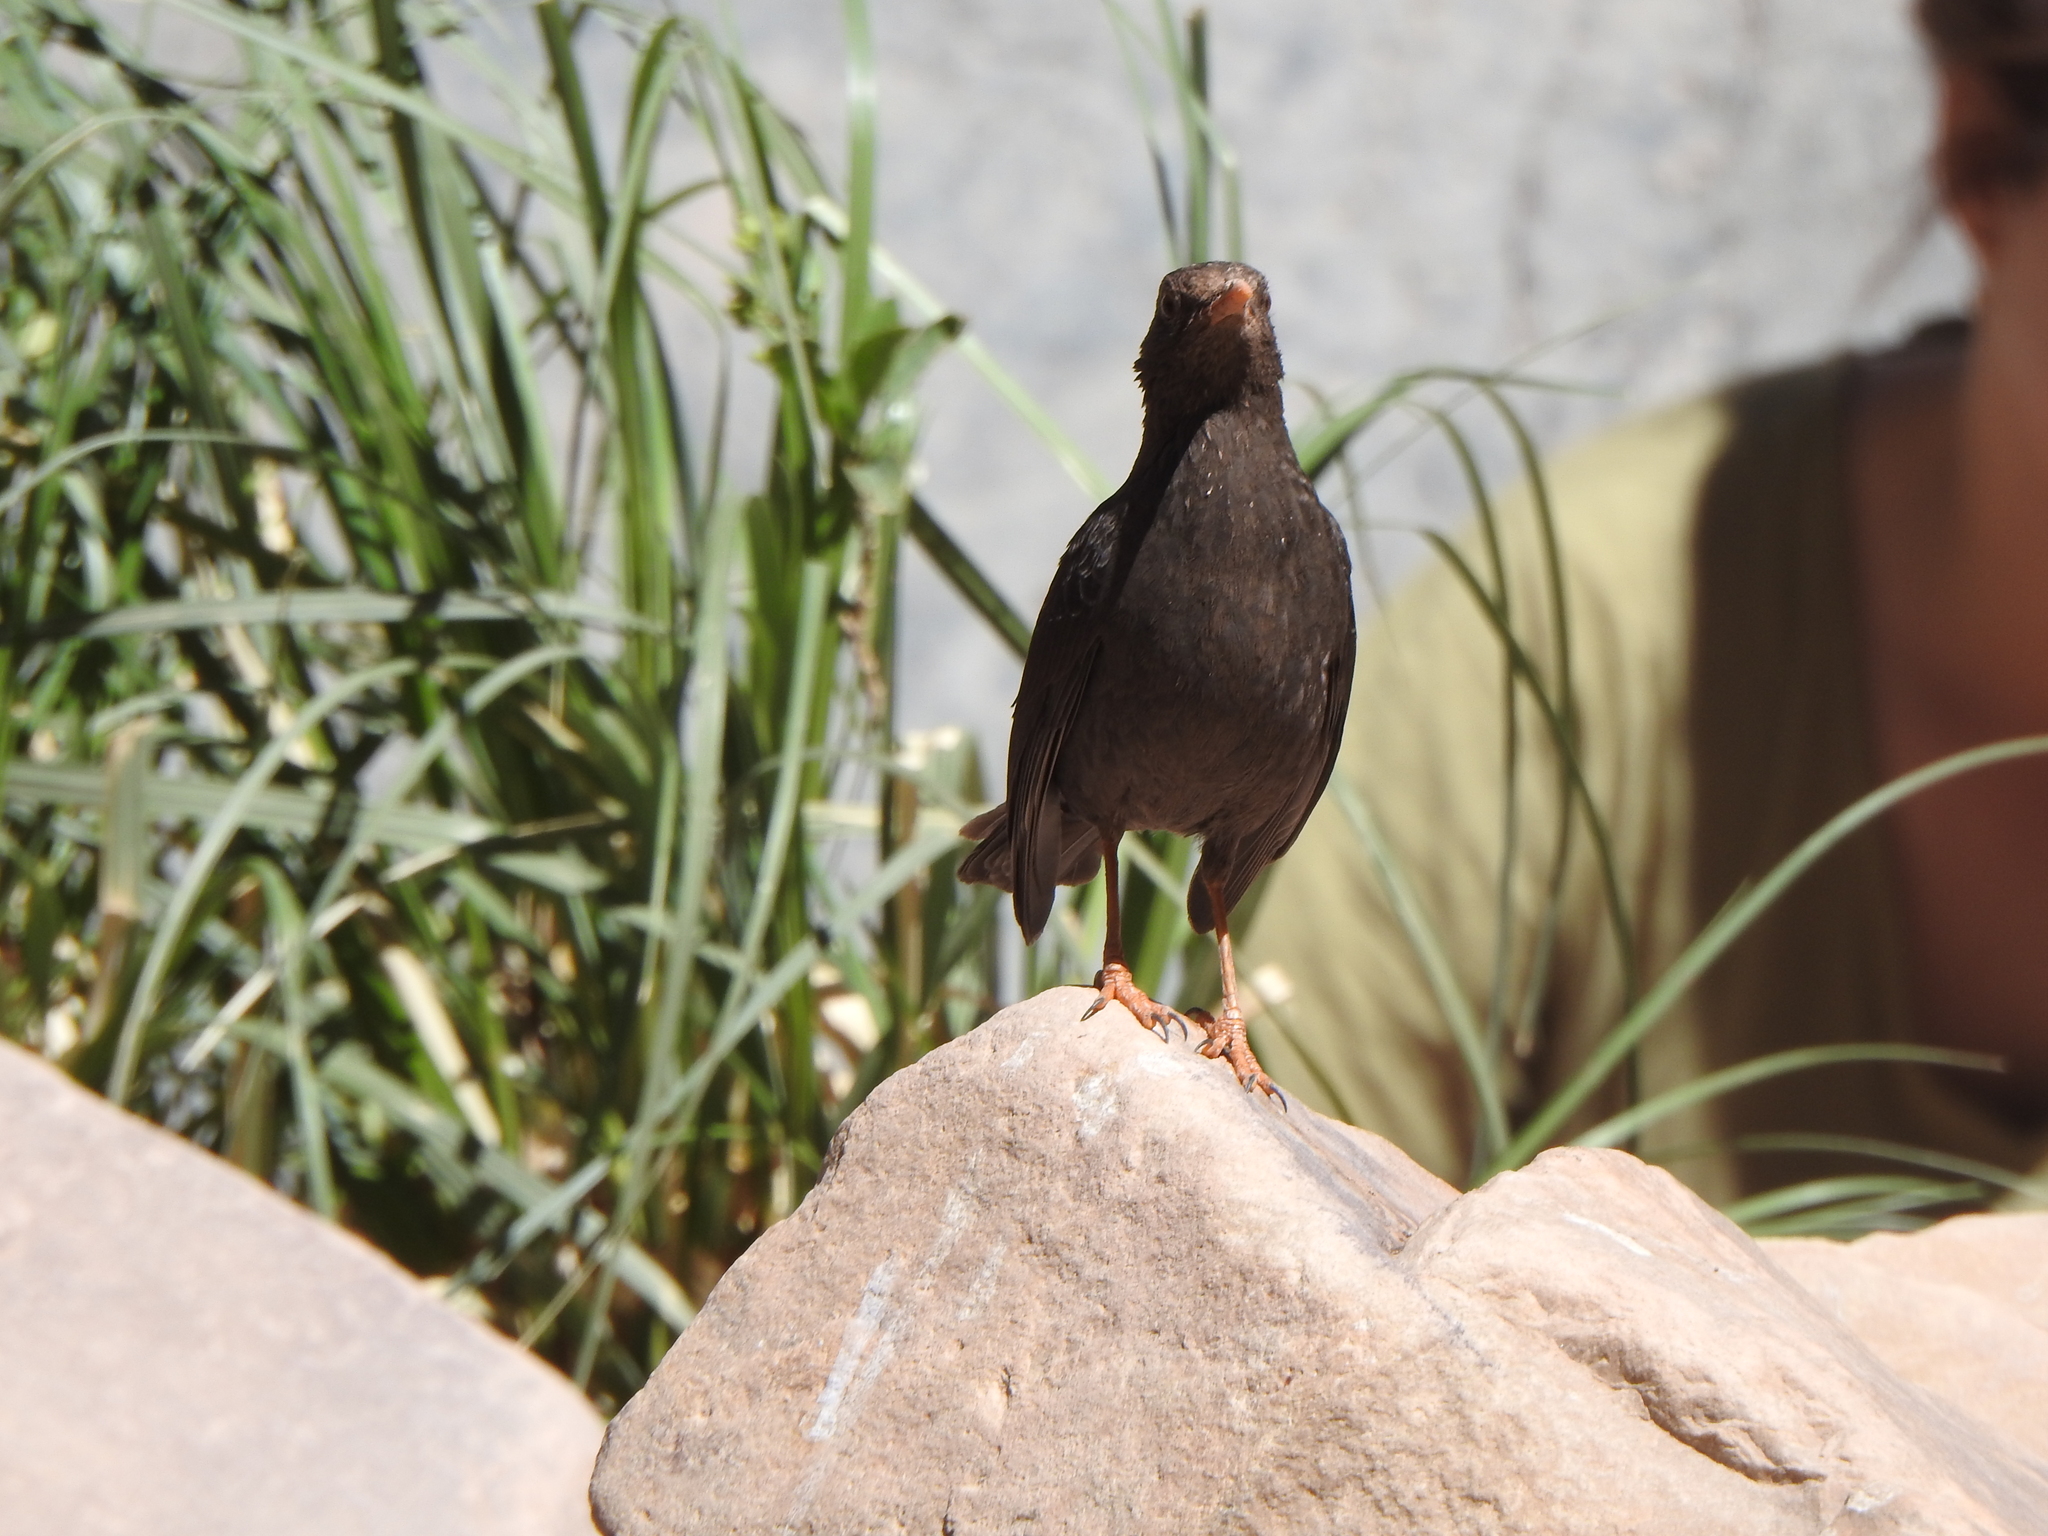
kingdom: Animalia
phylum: Chordata
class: Aves
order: Passeriformes
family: Turdidae
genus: Turdus
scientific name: Turdus chiguanco
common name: Chiguanco thrush
